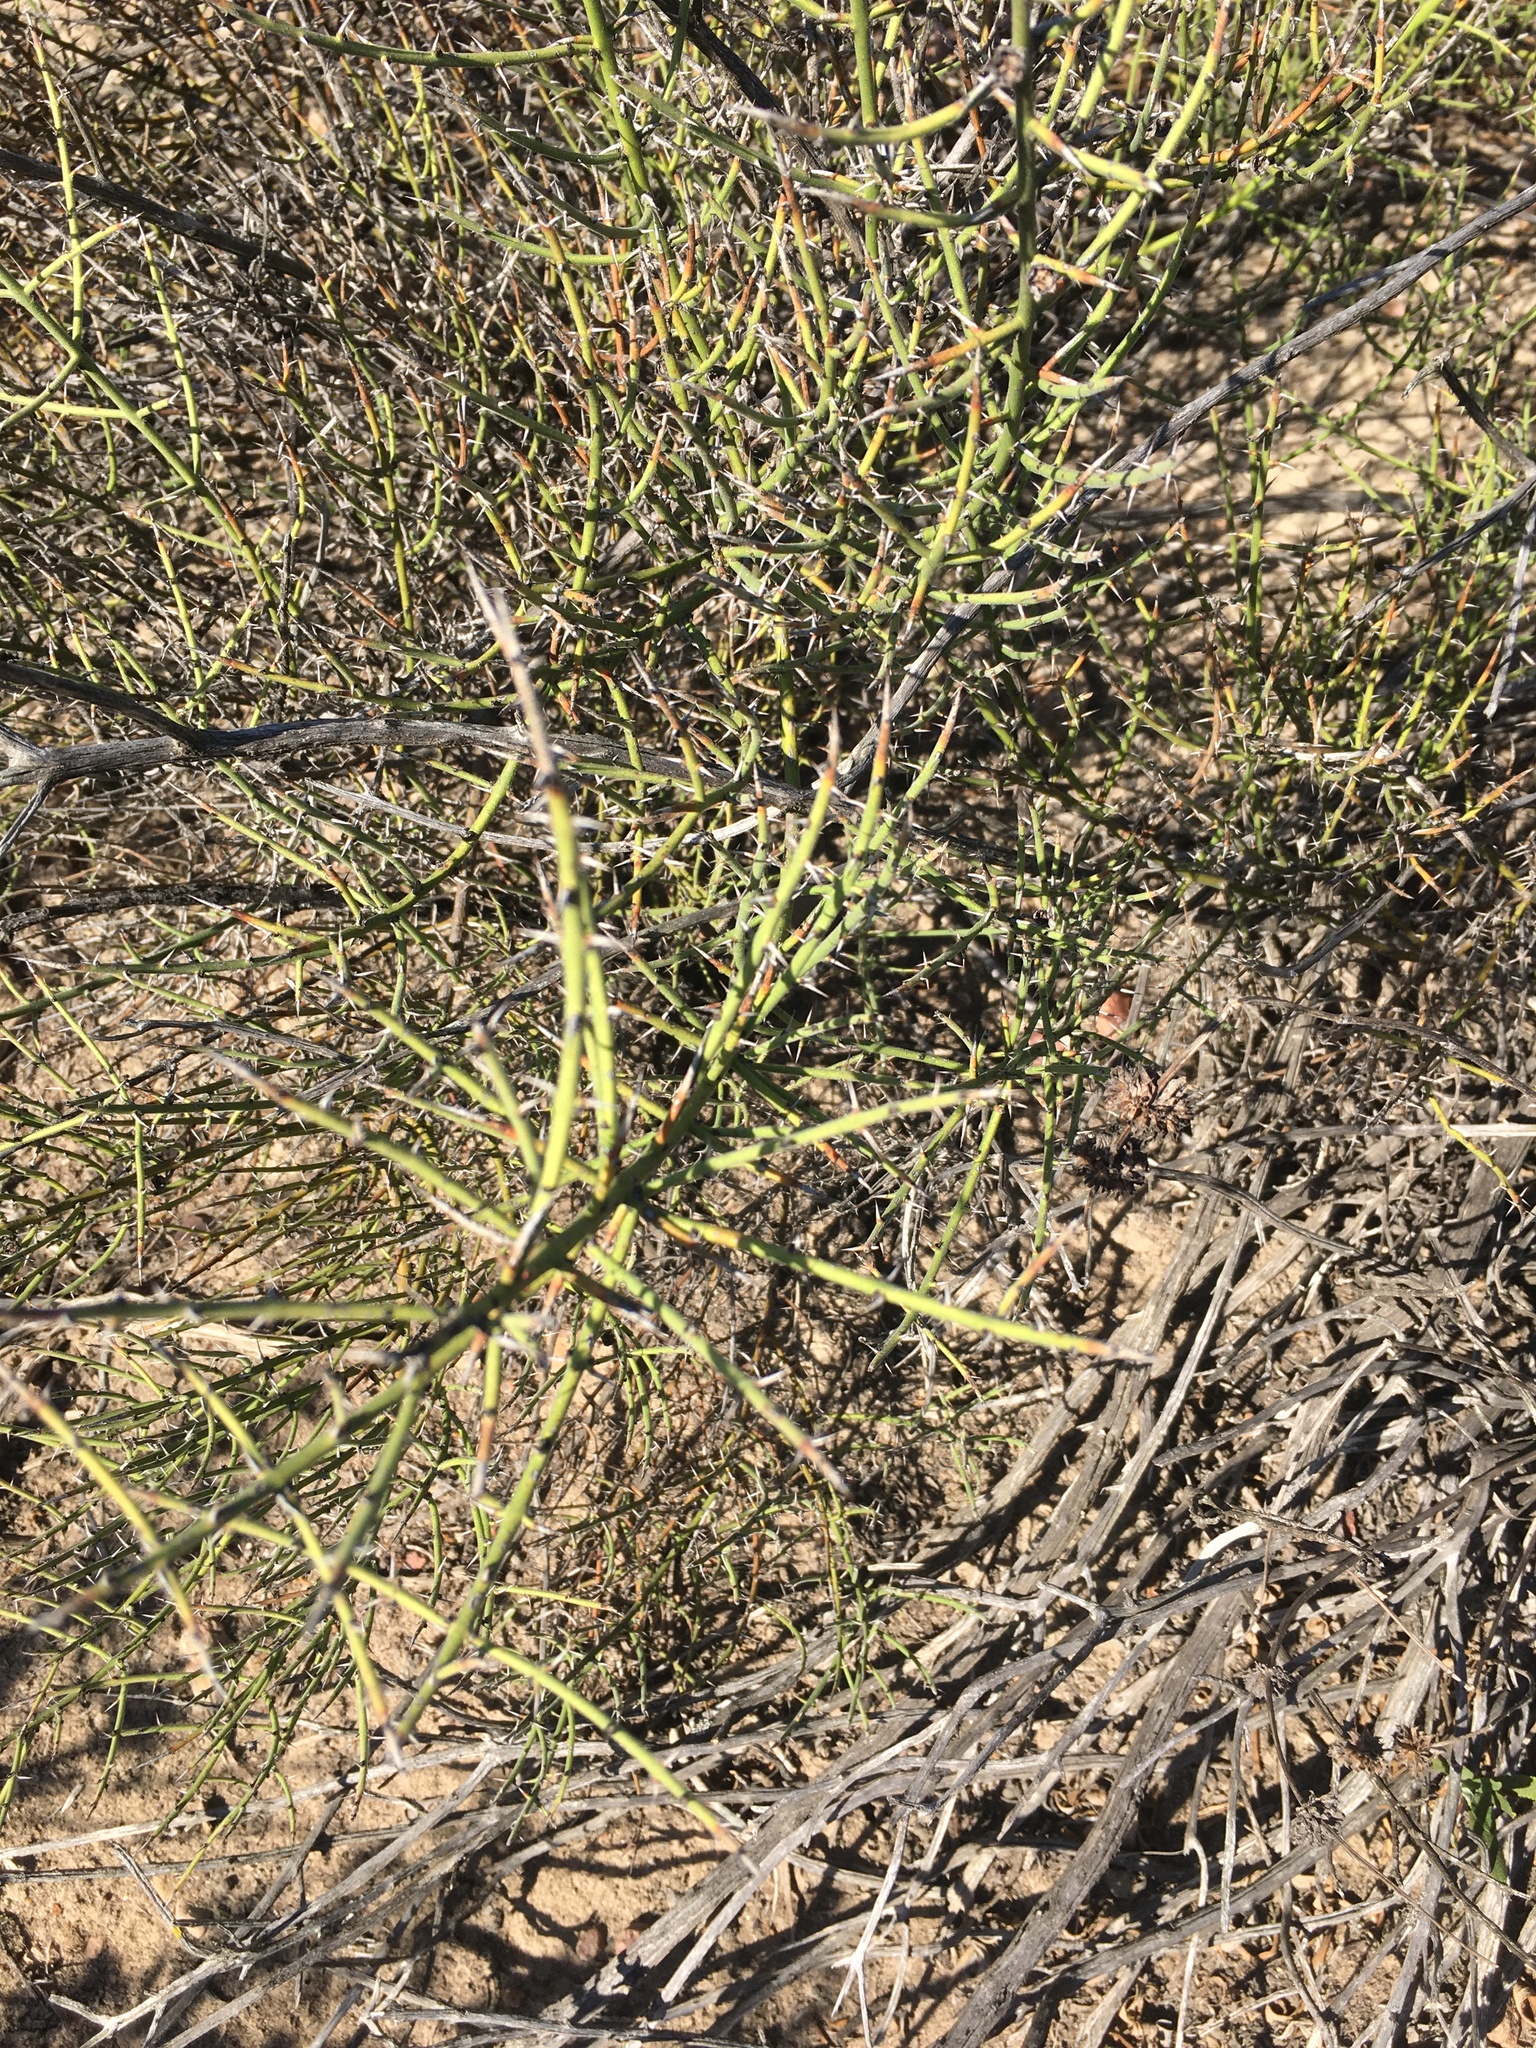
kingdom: Plantae
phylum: Tracheophyta
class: Magnoliopsida
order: Rosales
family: Rhamnaceae
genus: Adolphia
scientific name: Adolphia californica
